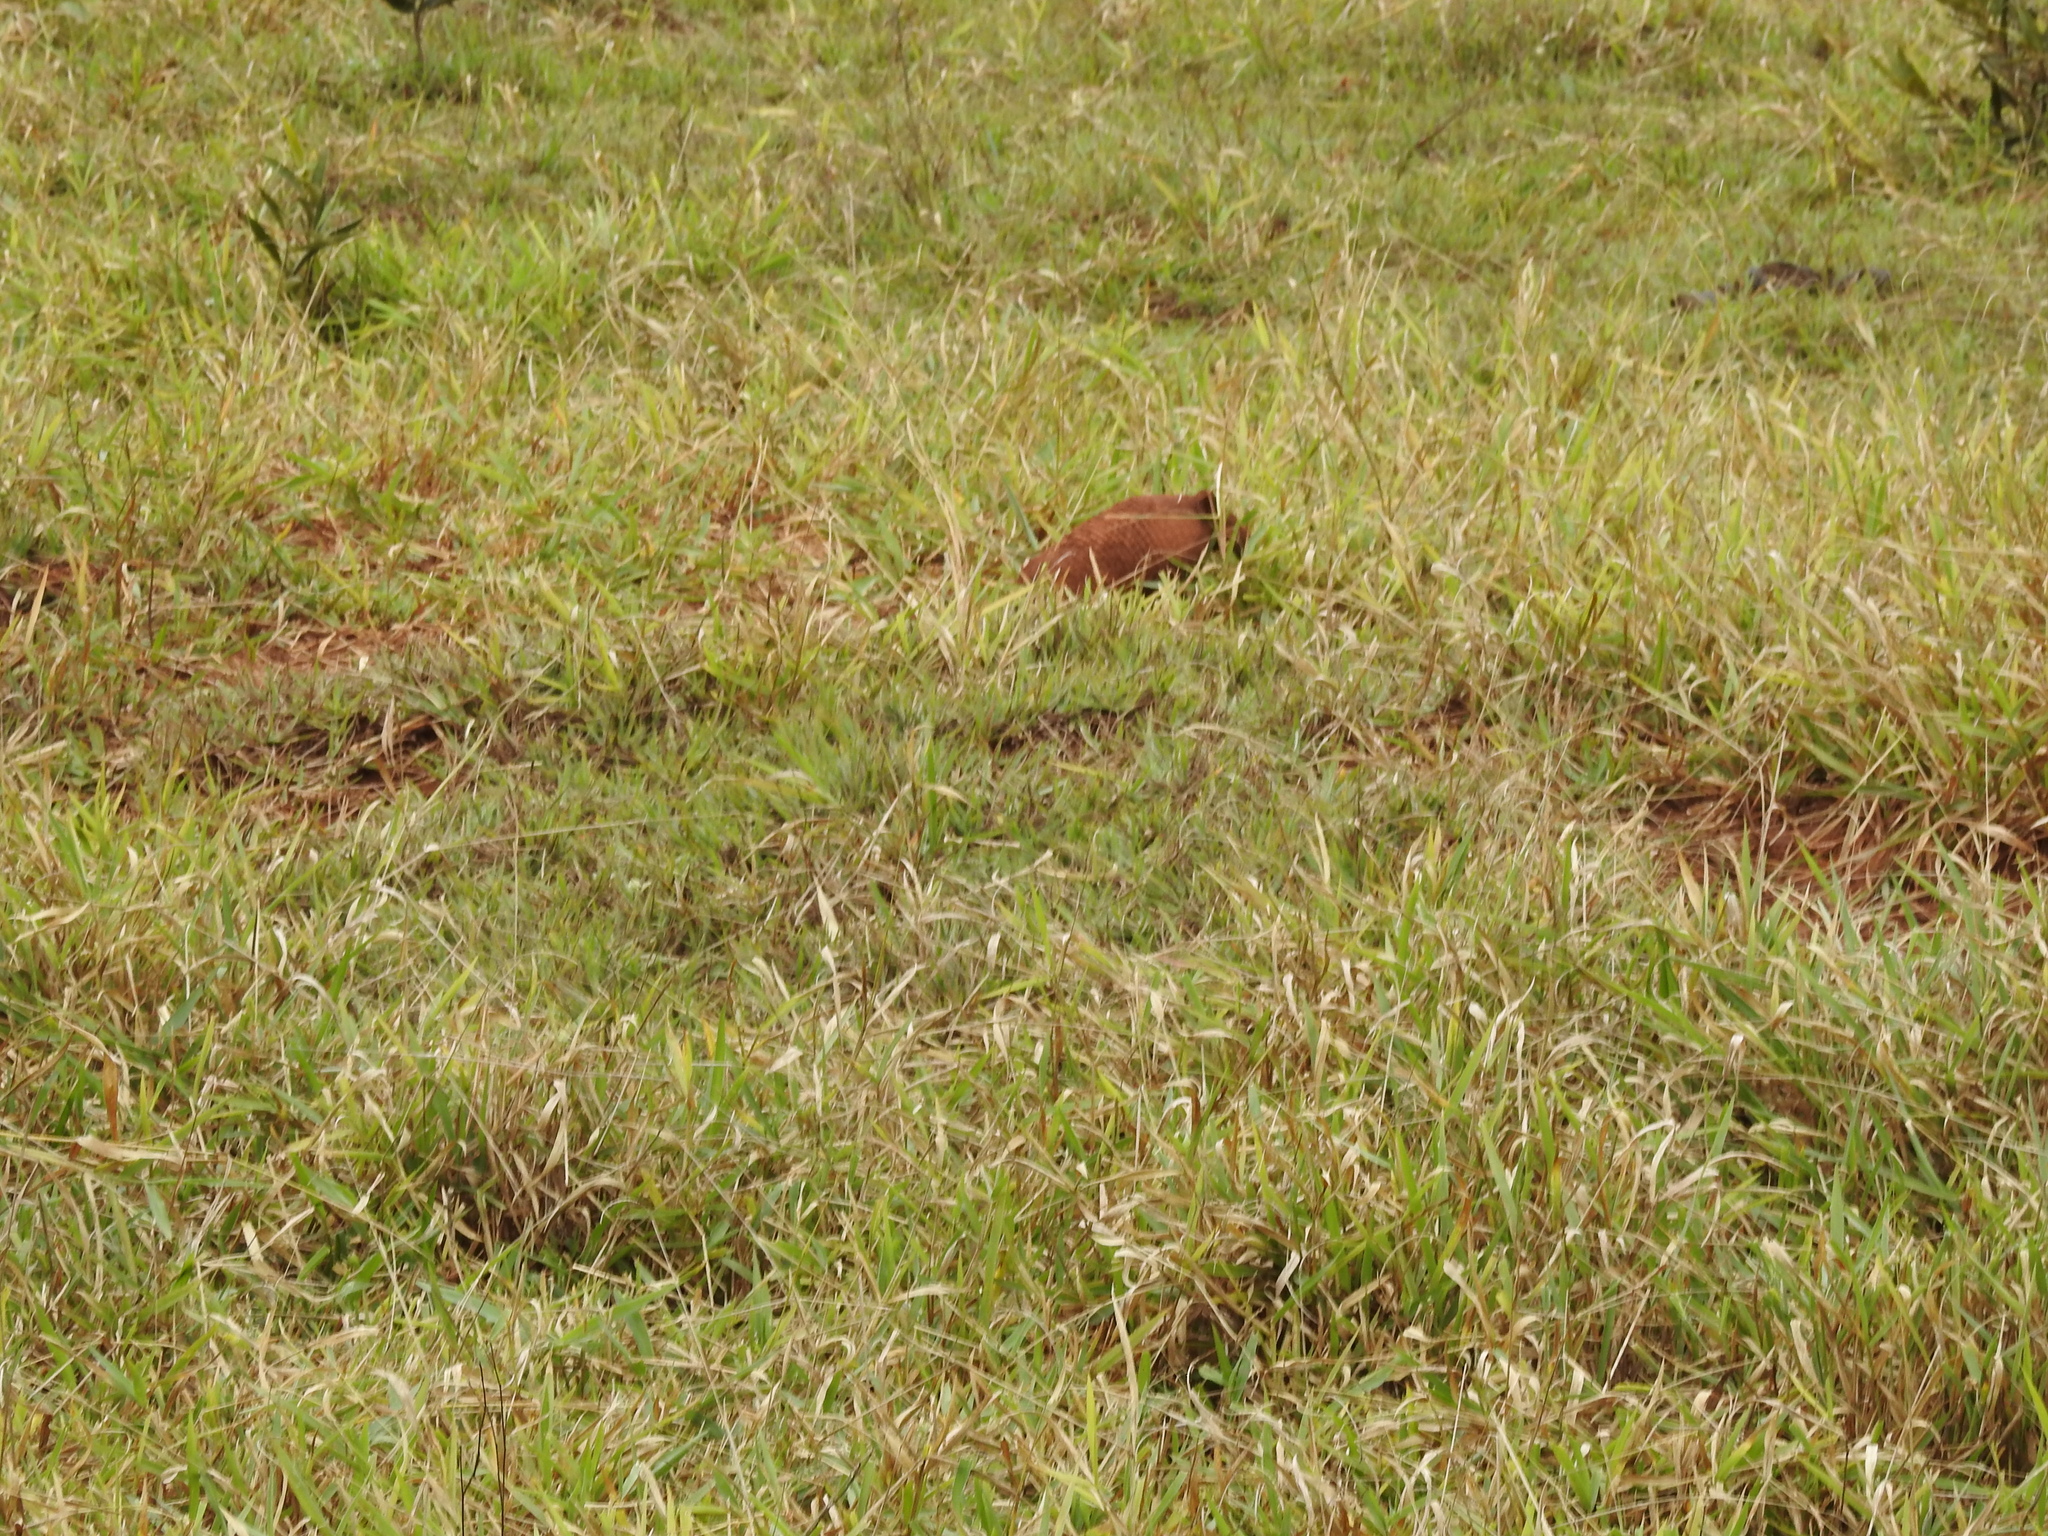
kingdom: Animalia
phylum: Chordata
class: Mammalia
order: Cingulata
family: Dasypodidae
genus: Cabassous
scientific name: Cabassous unicinctus
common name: Southern naked-tailed armadillo
